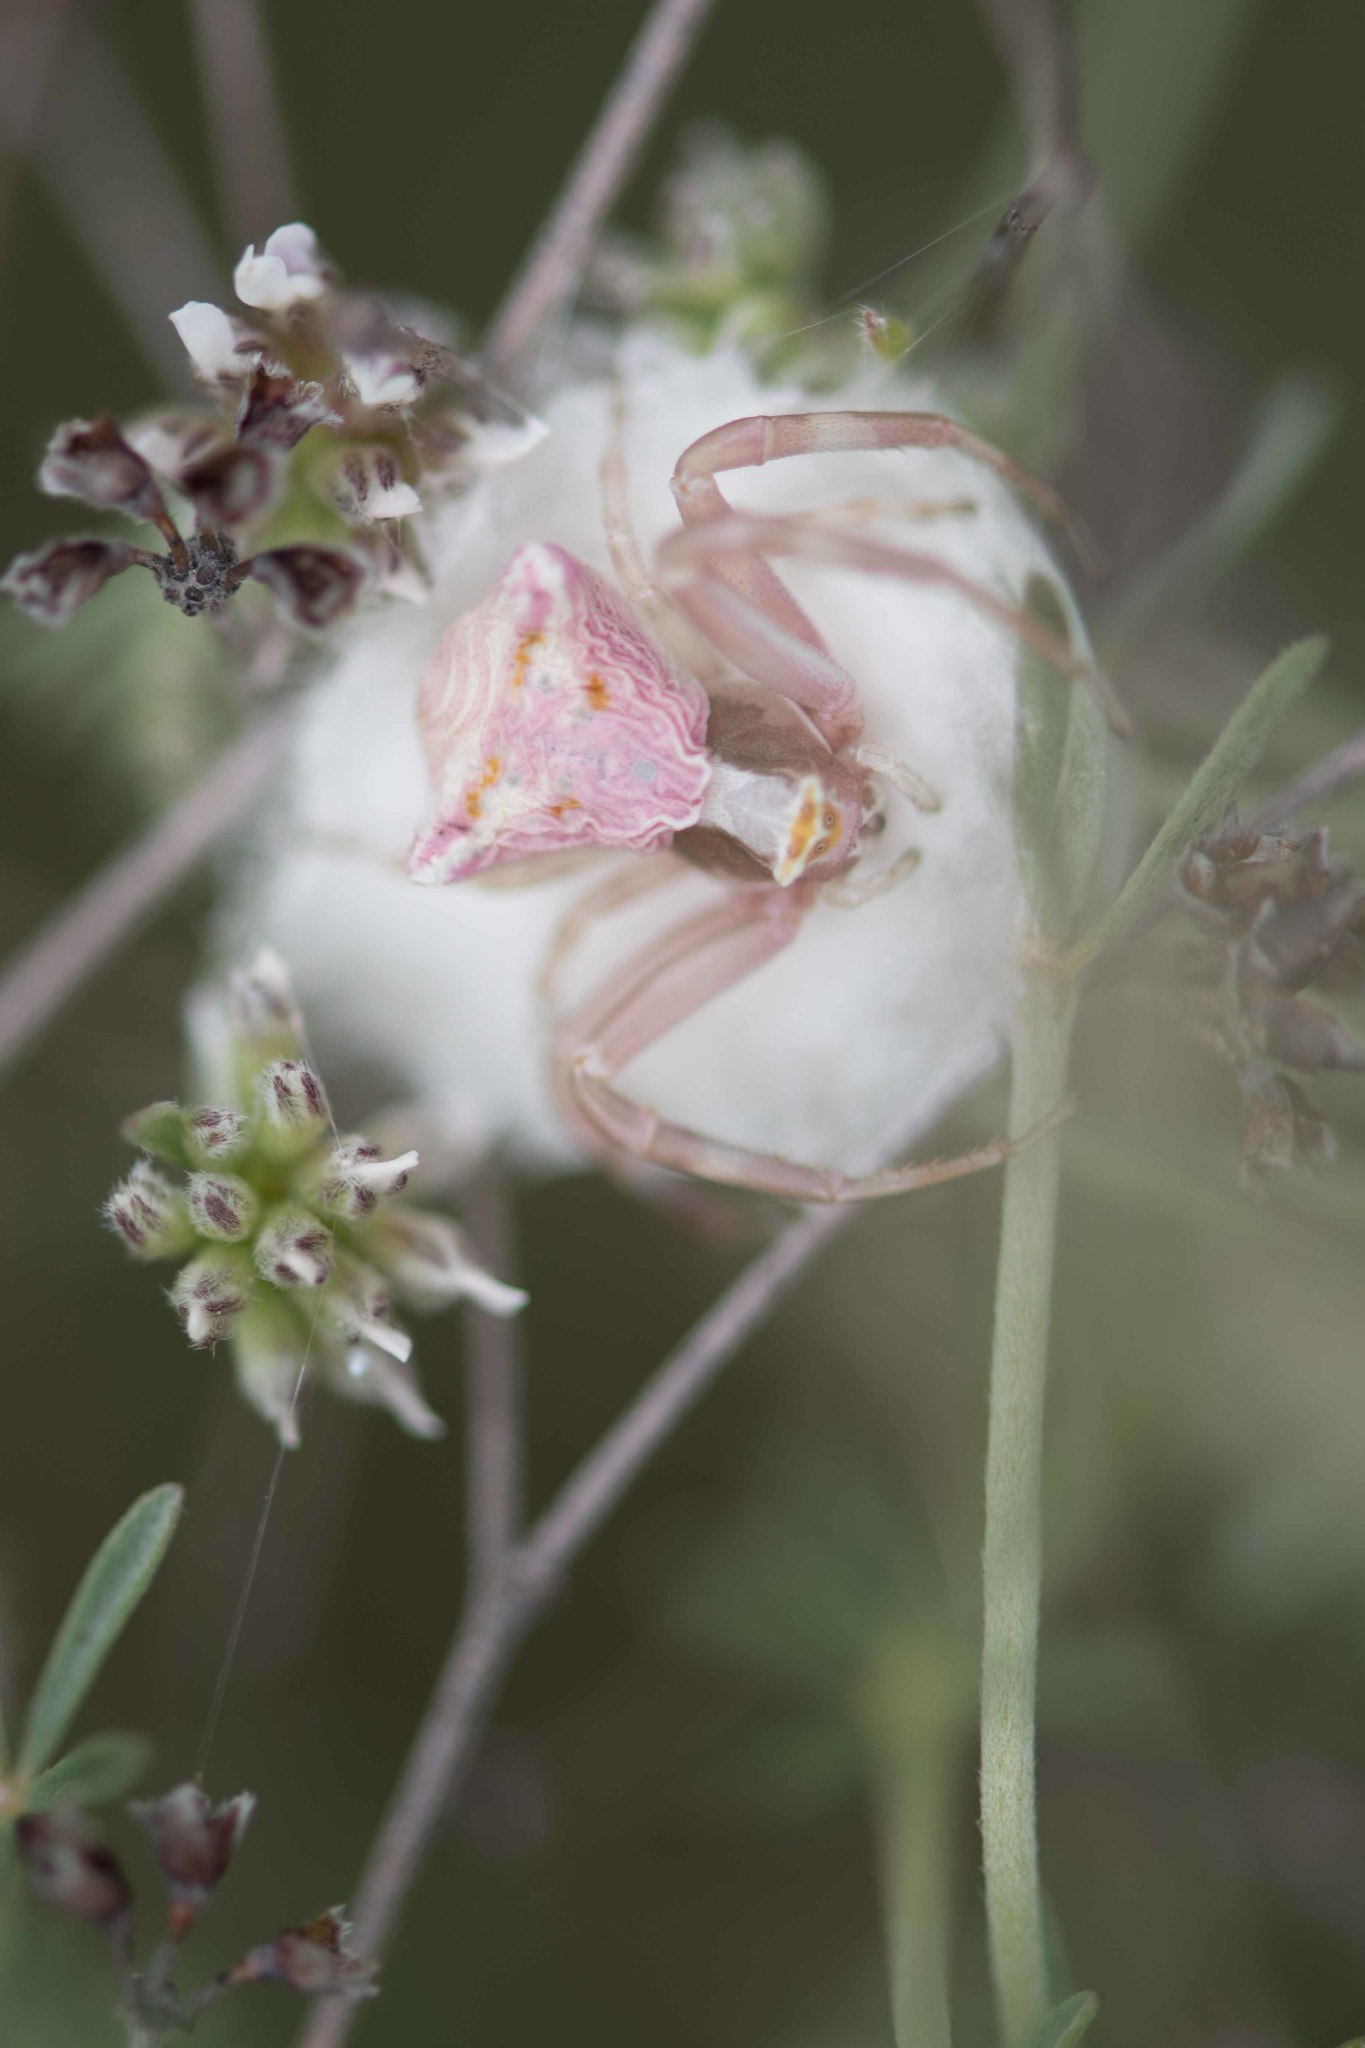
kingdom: Animalia
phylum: Arthropoda
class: Arachnida
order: Araneae
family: Thomisidae
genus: Thomisus
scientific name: Thomisus onustus
